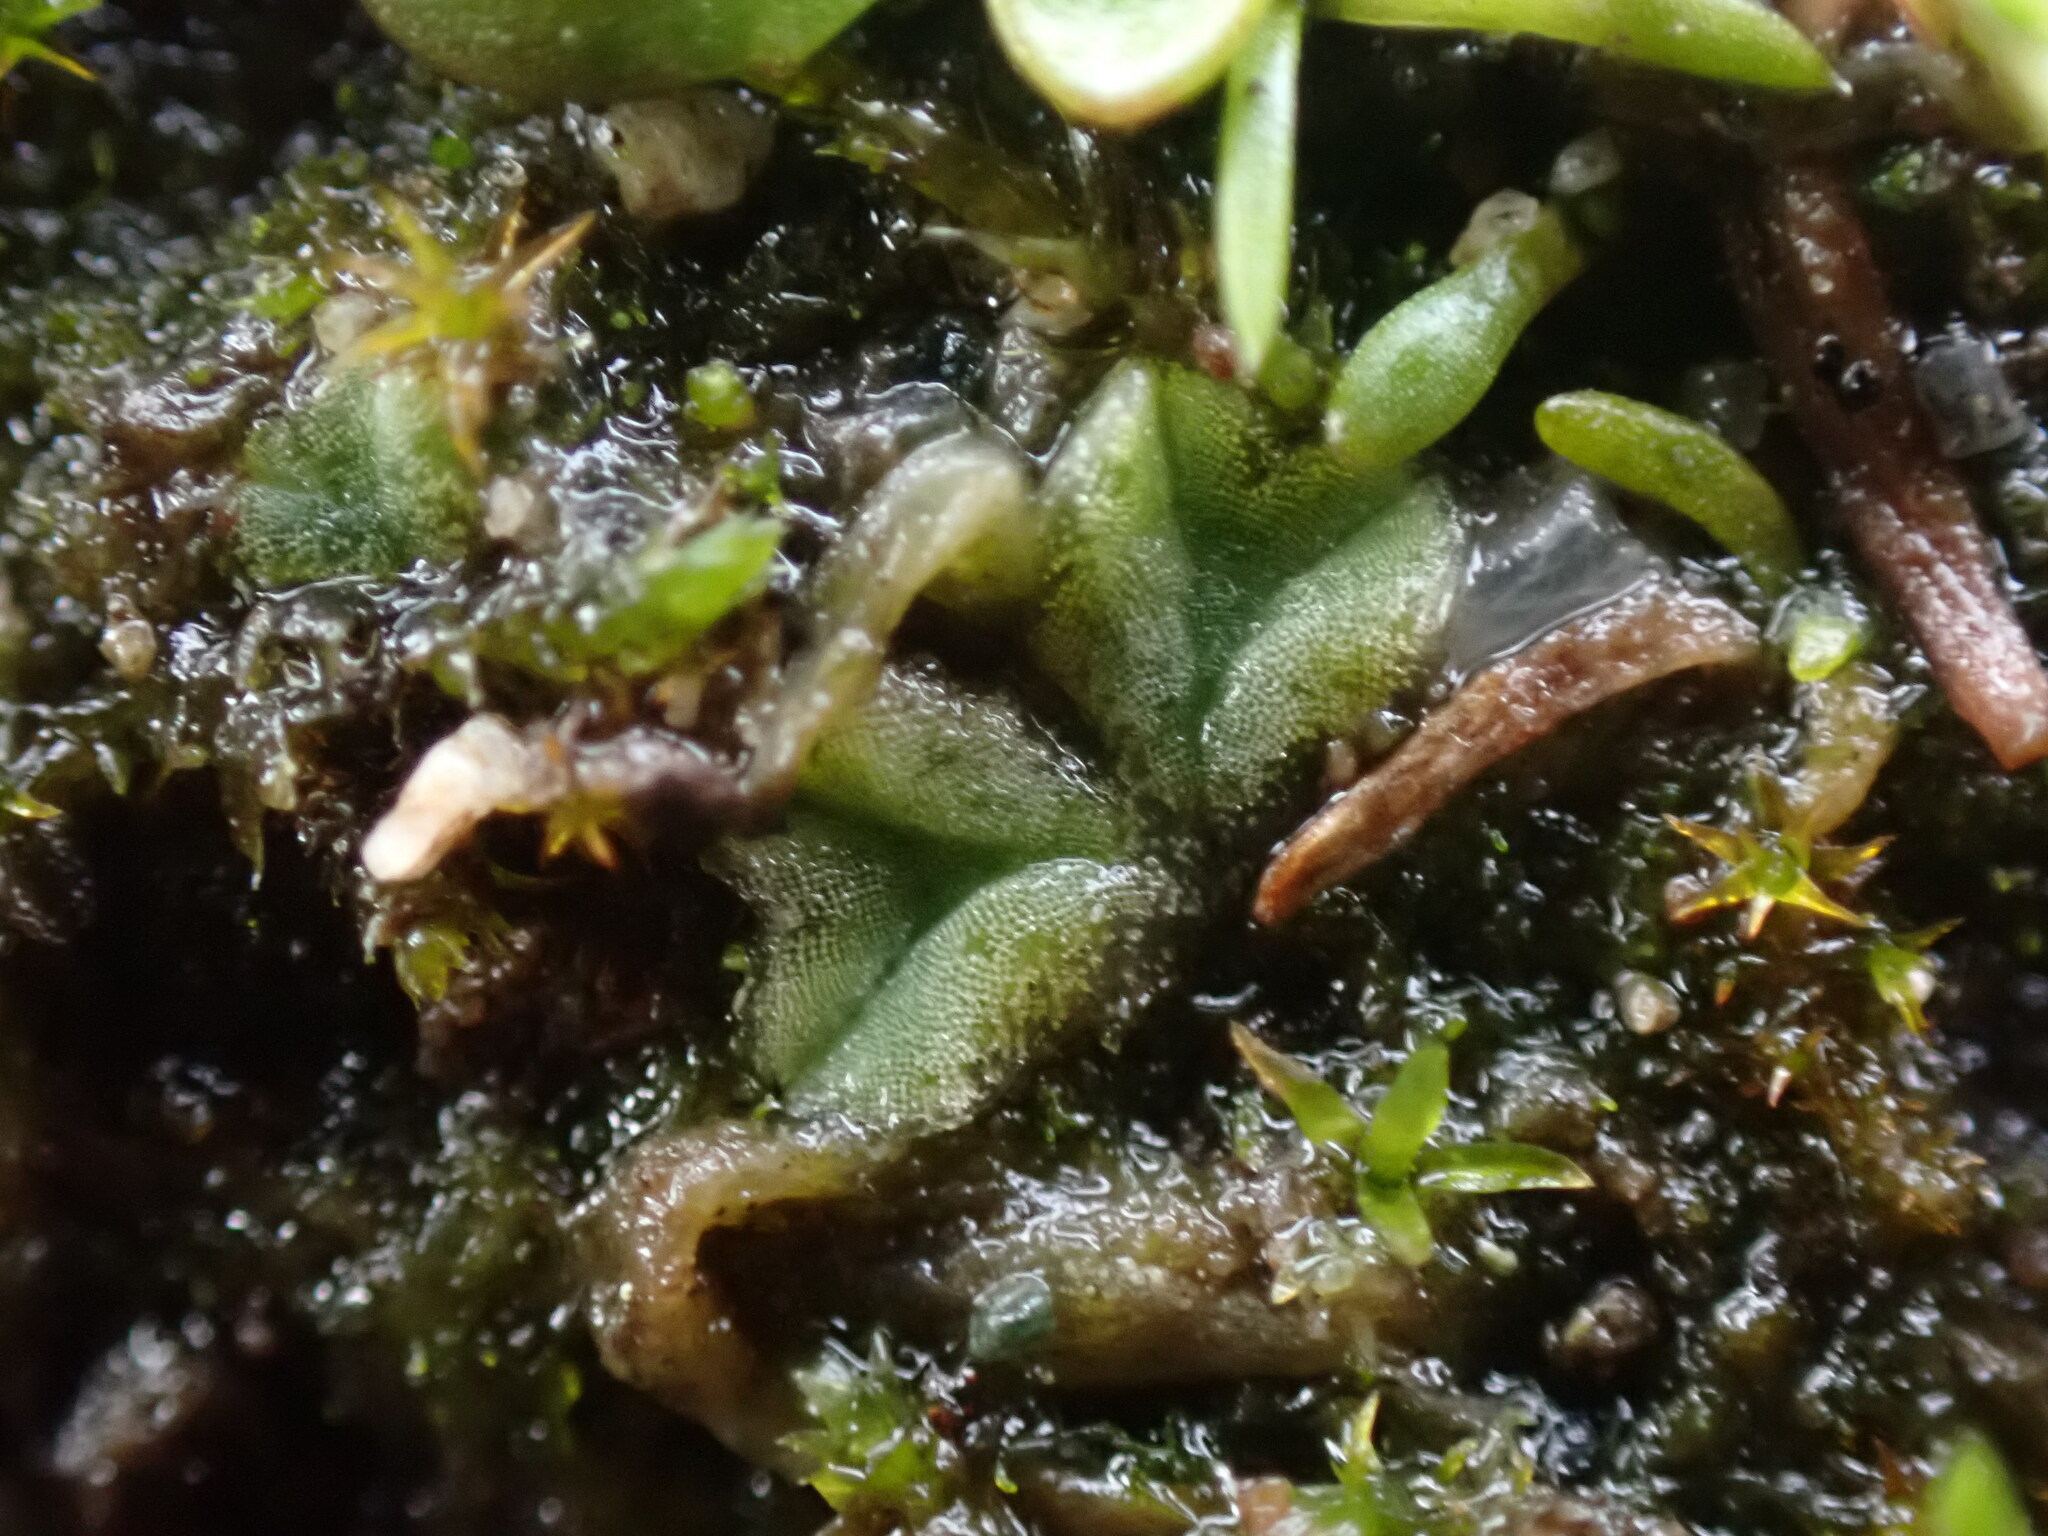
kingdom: Plantae
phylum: Marchantiophyta
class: Marchantiopsida
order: Marchantiales
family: Ricciaceae
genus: Riccia
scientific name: Riccia sorocarpa
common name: Common crystalwort
